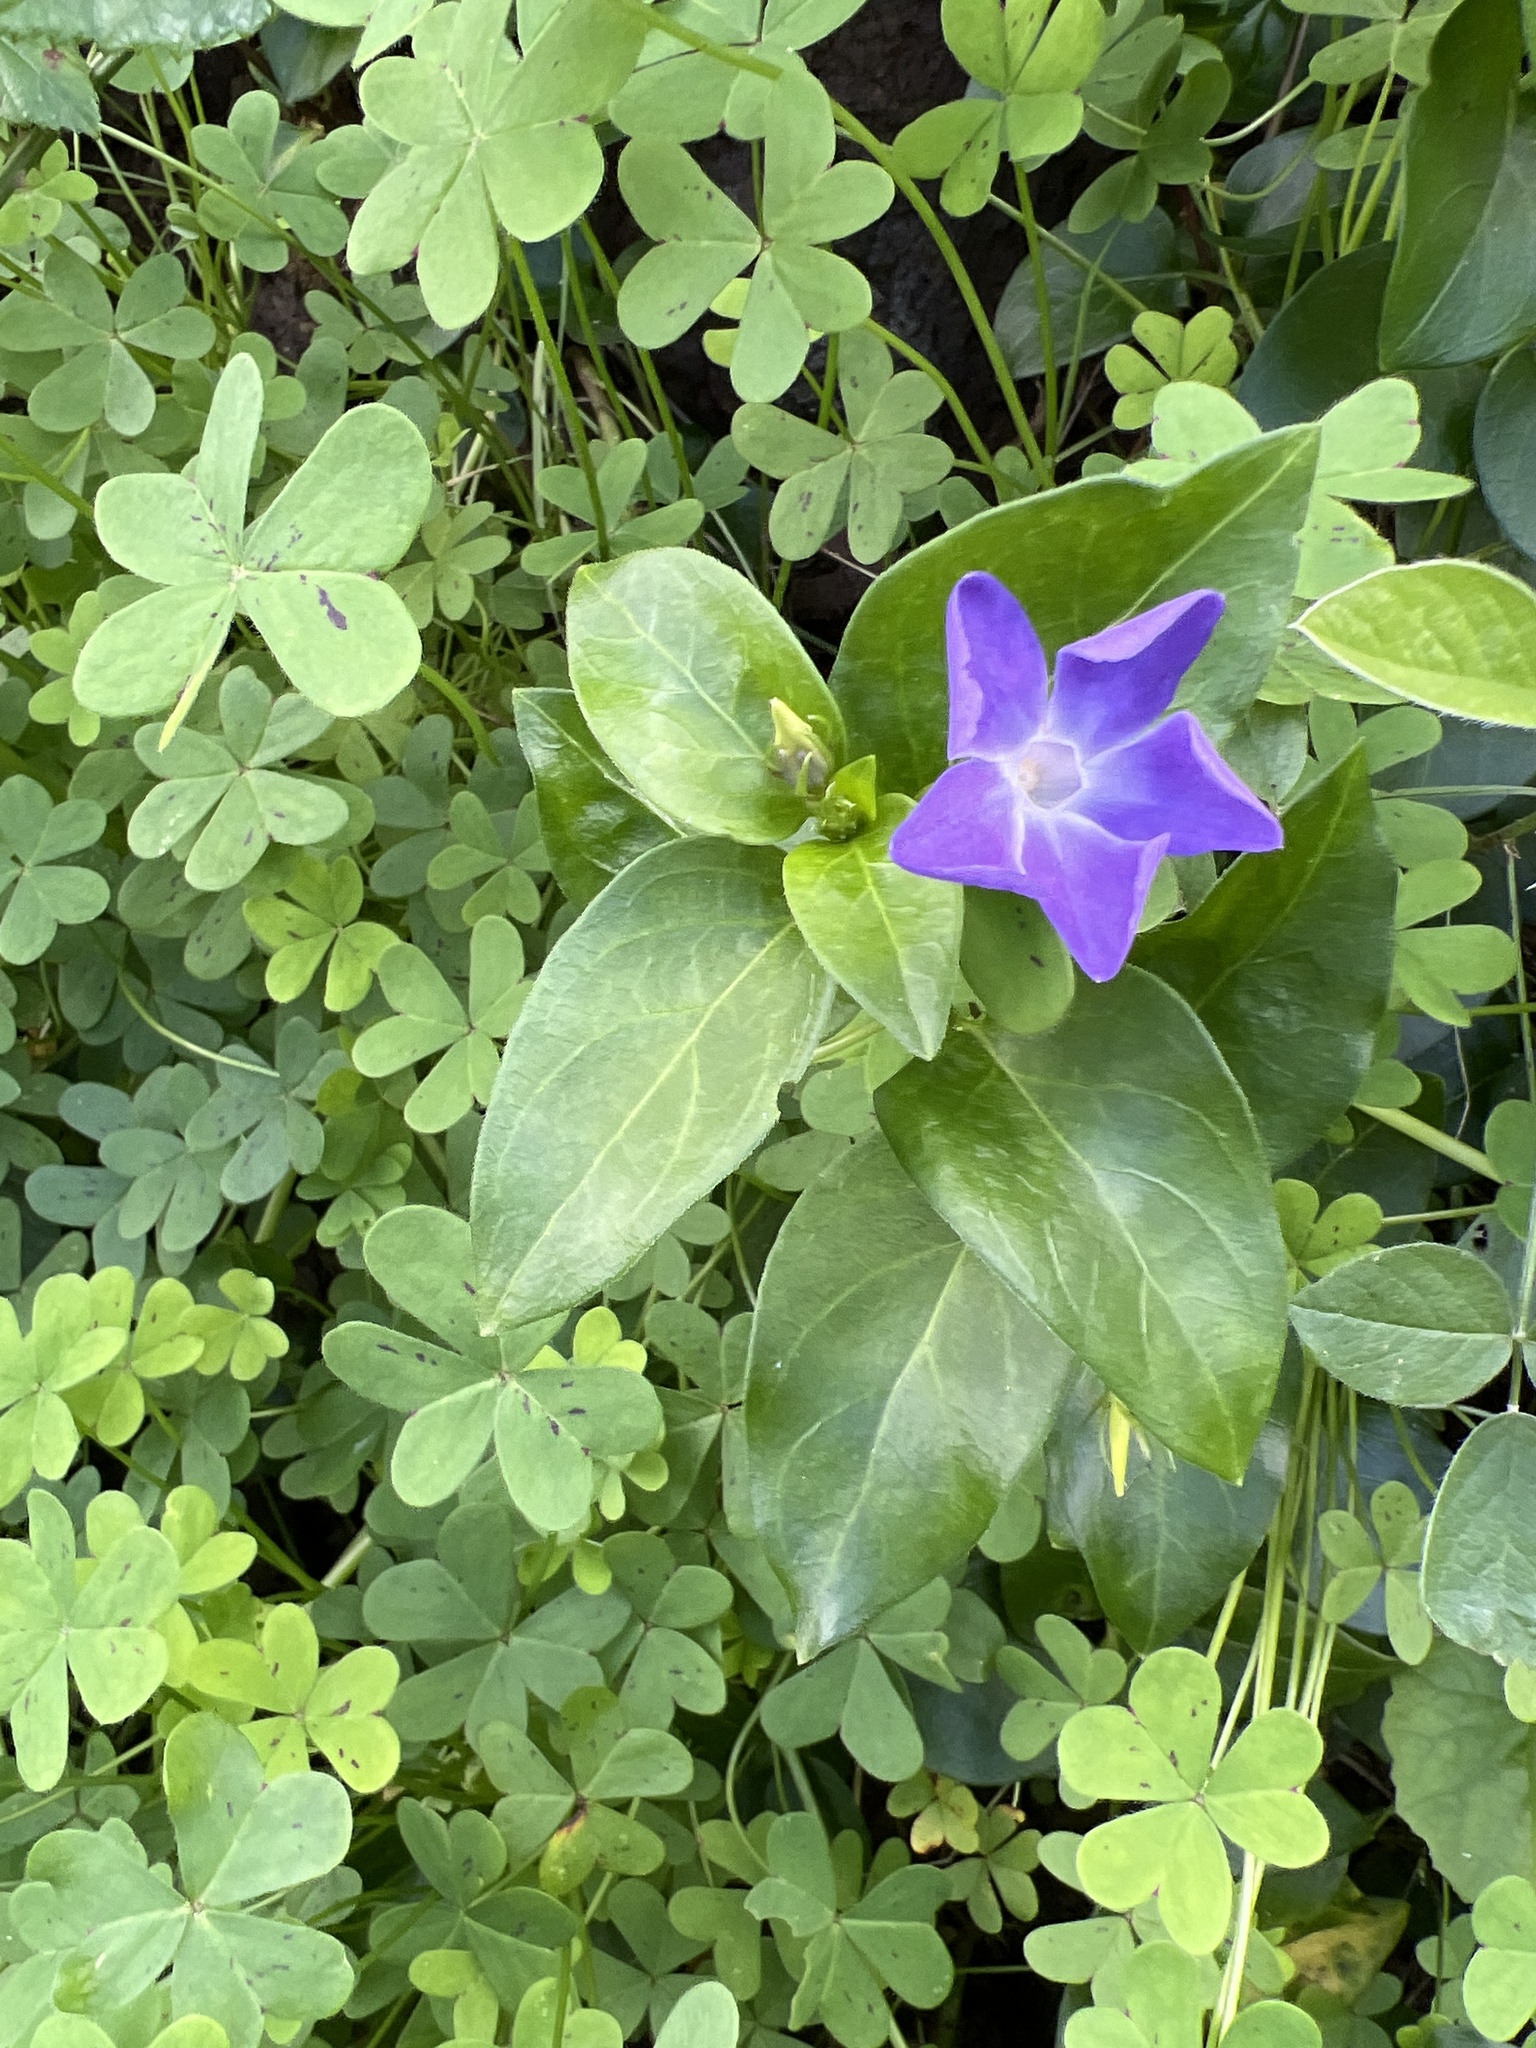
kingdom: Plantae
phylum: Tracheophyta
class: Magnoliopsida
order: Gentianales
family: Apocynaceae
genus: Vinca
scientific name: Vinca major
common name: Greater periwinkle
